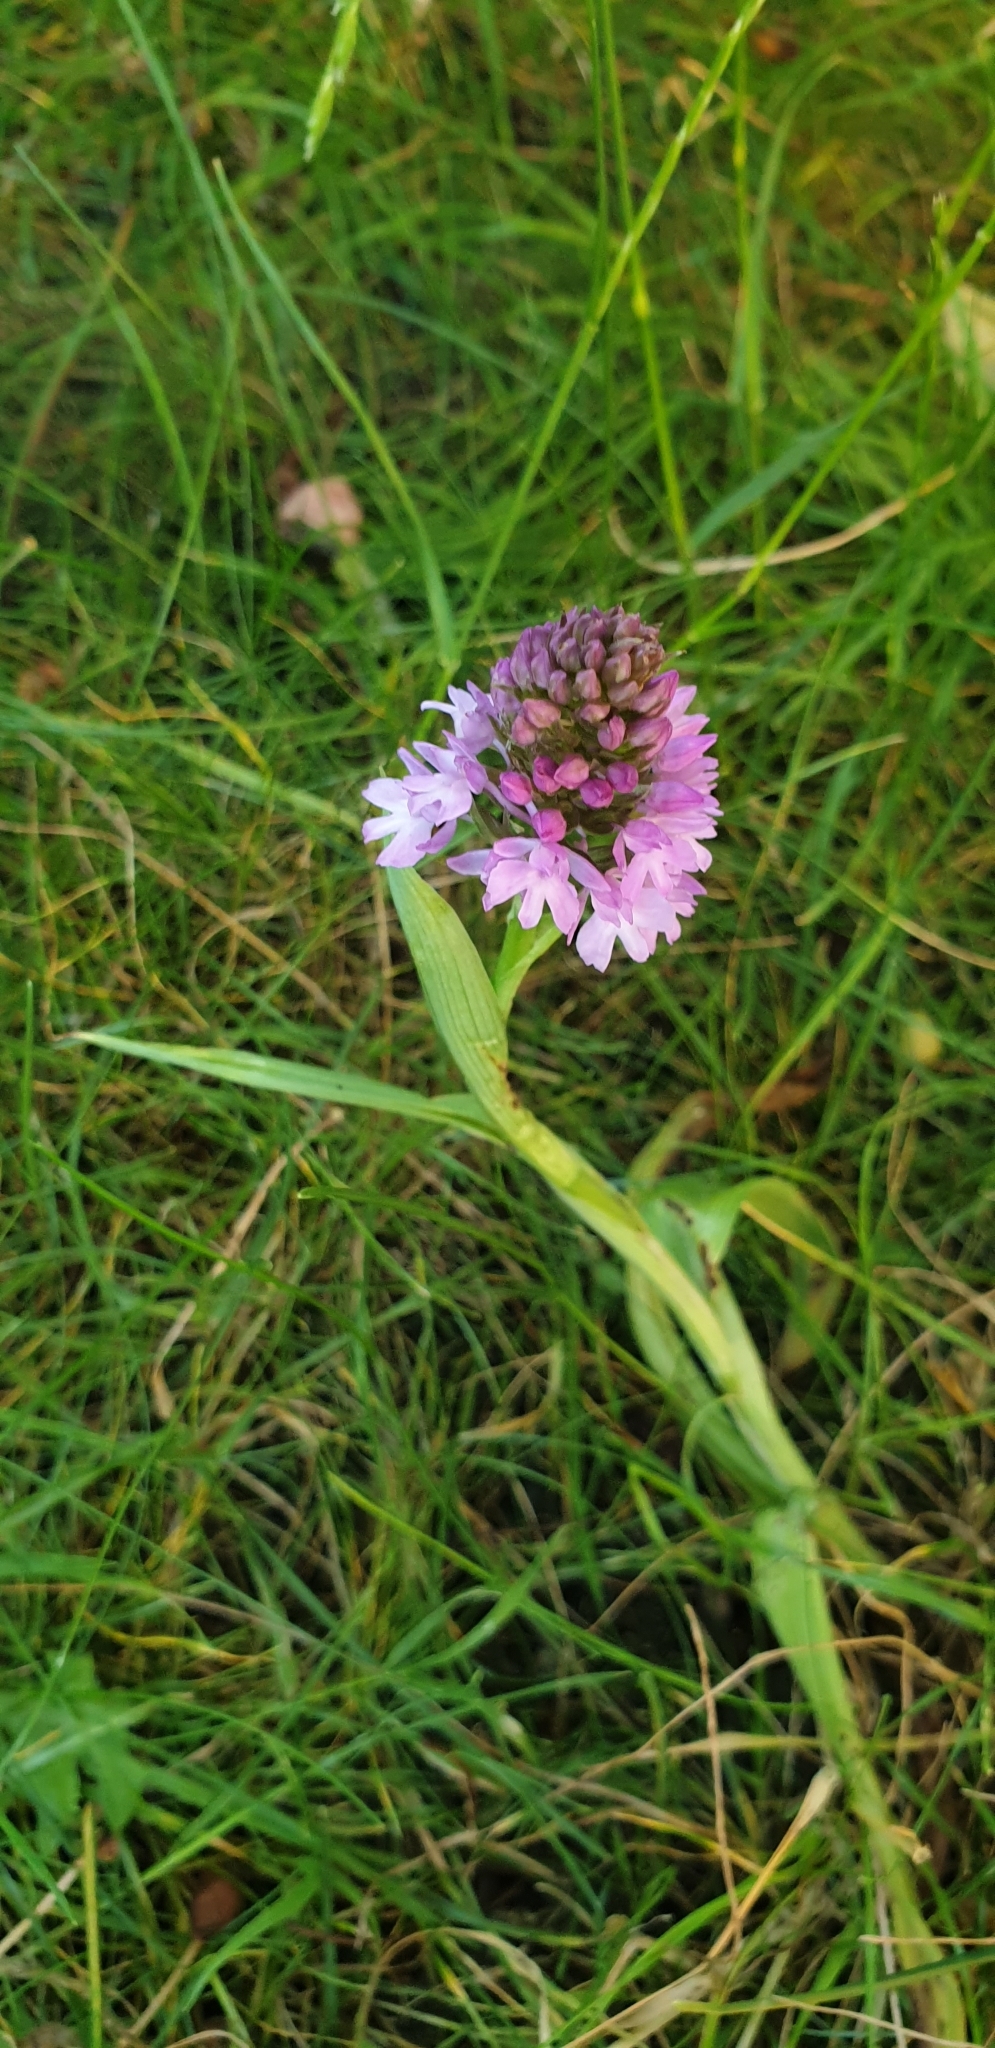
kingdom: Plantae
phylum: Tracheophyta
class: Liliopsida
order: Asparagales
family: Orchidaceae
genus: Anacamptis
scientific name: Anacamptis pyramidalis
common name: Pyramidal orchid
